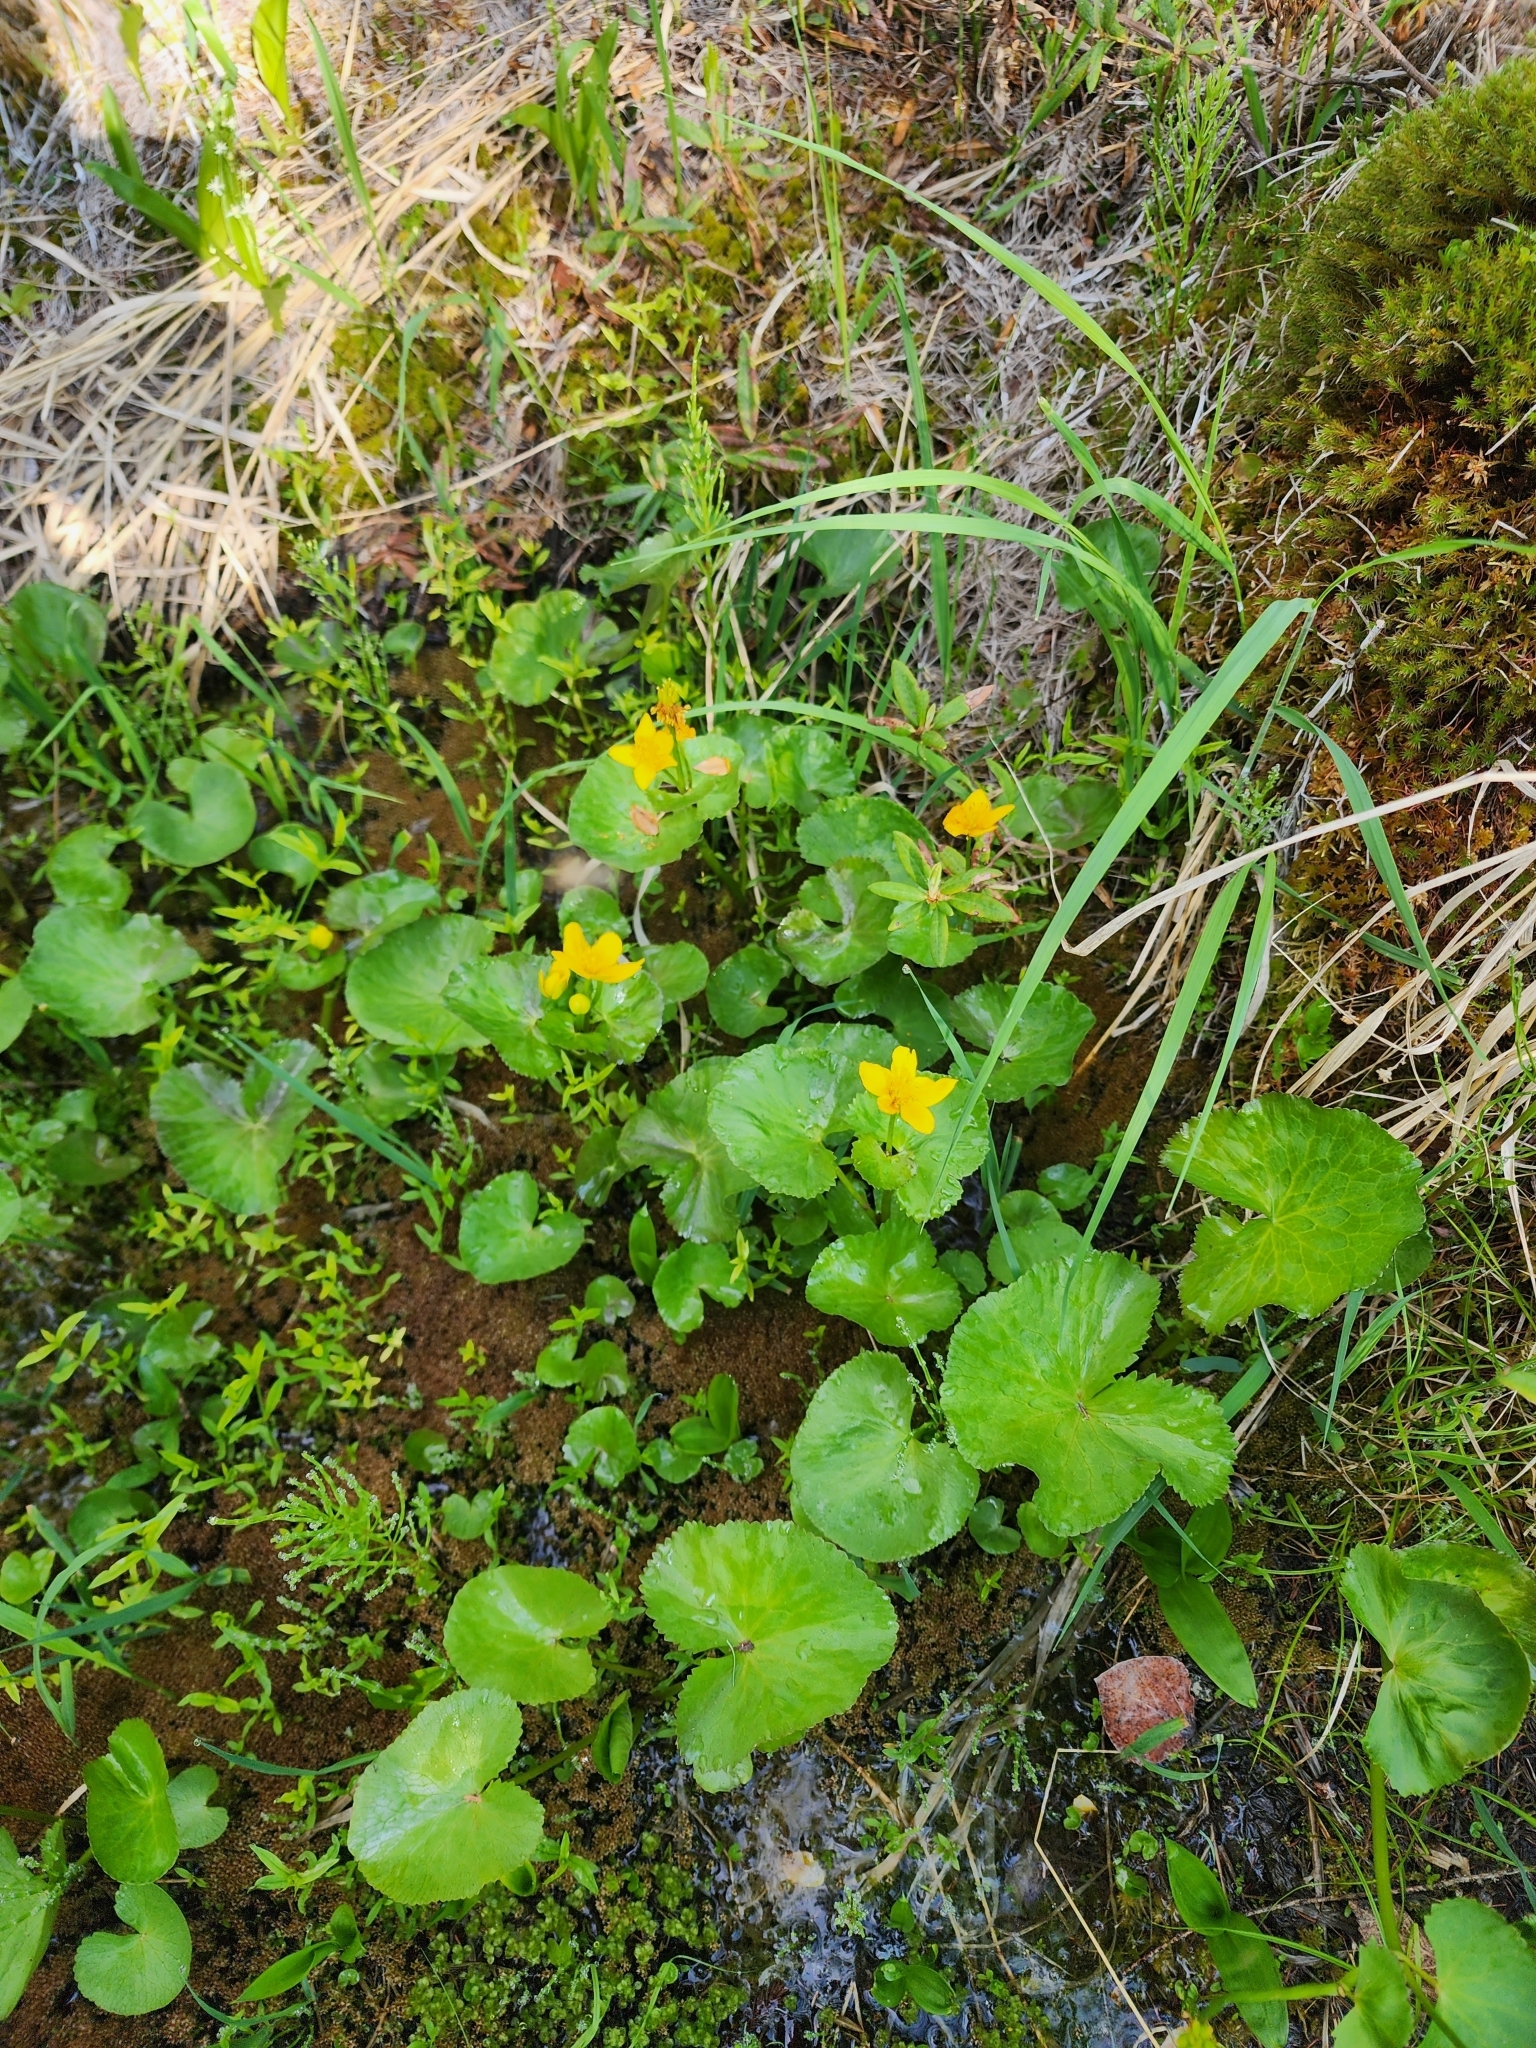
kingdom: Plantae
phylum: Tracheophyta
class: Magnoliopsida
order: Ranunculales
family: Ranunculaceae
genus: Caltha
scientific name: Caltha palustris
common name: Marsh marigold
